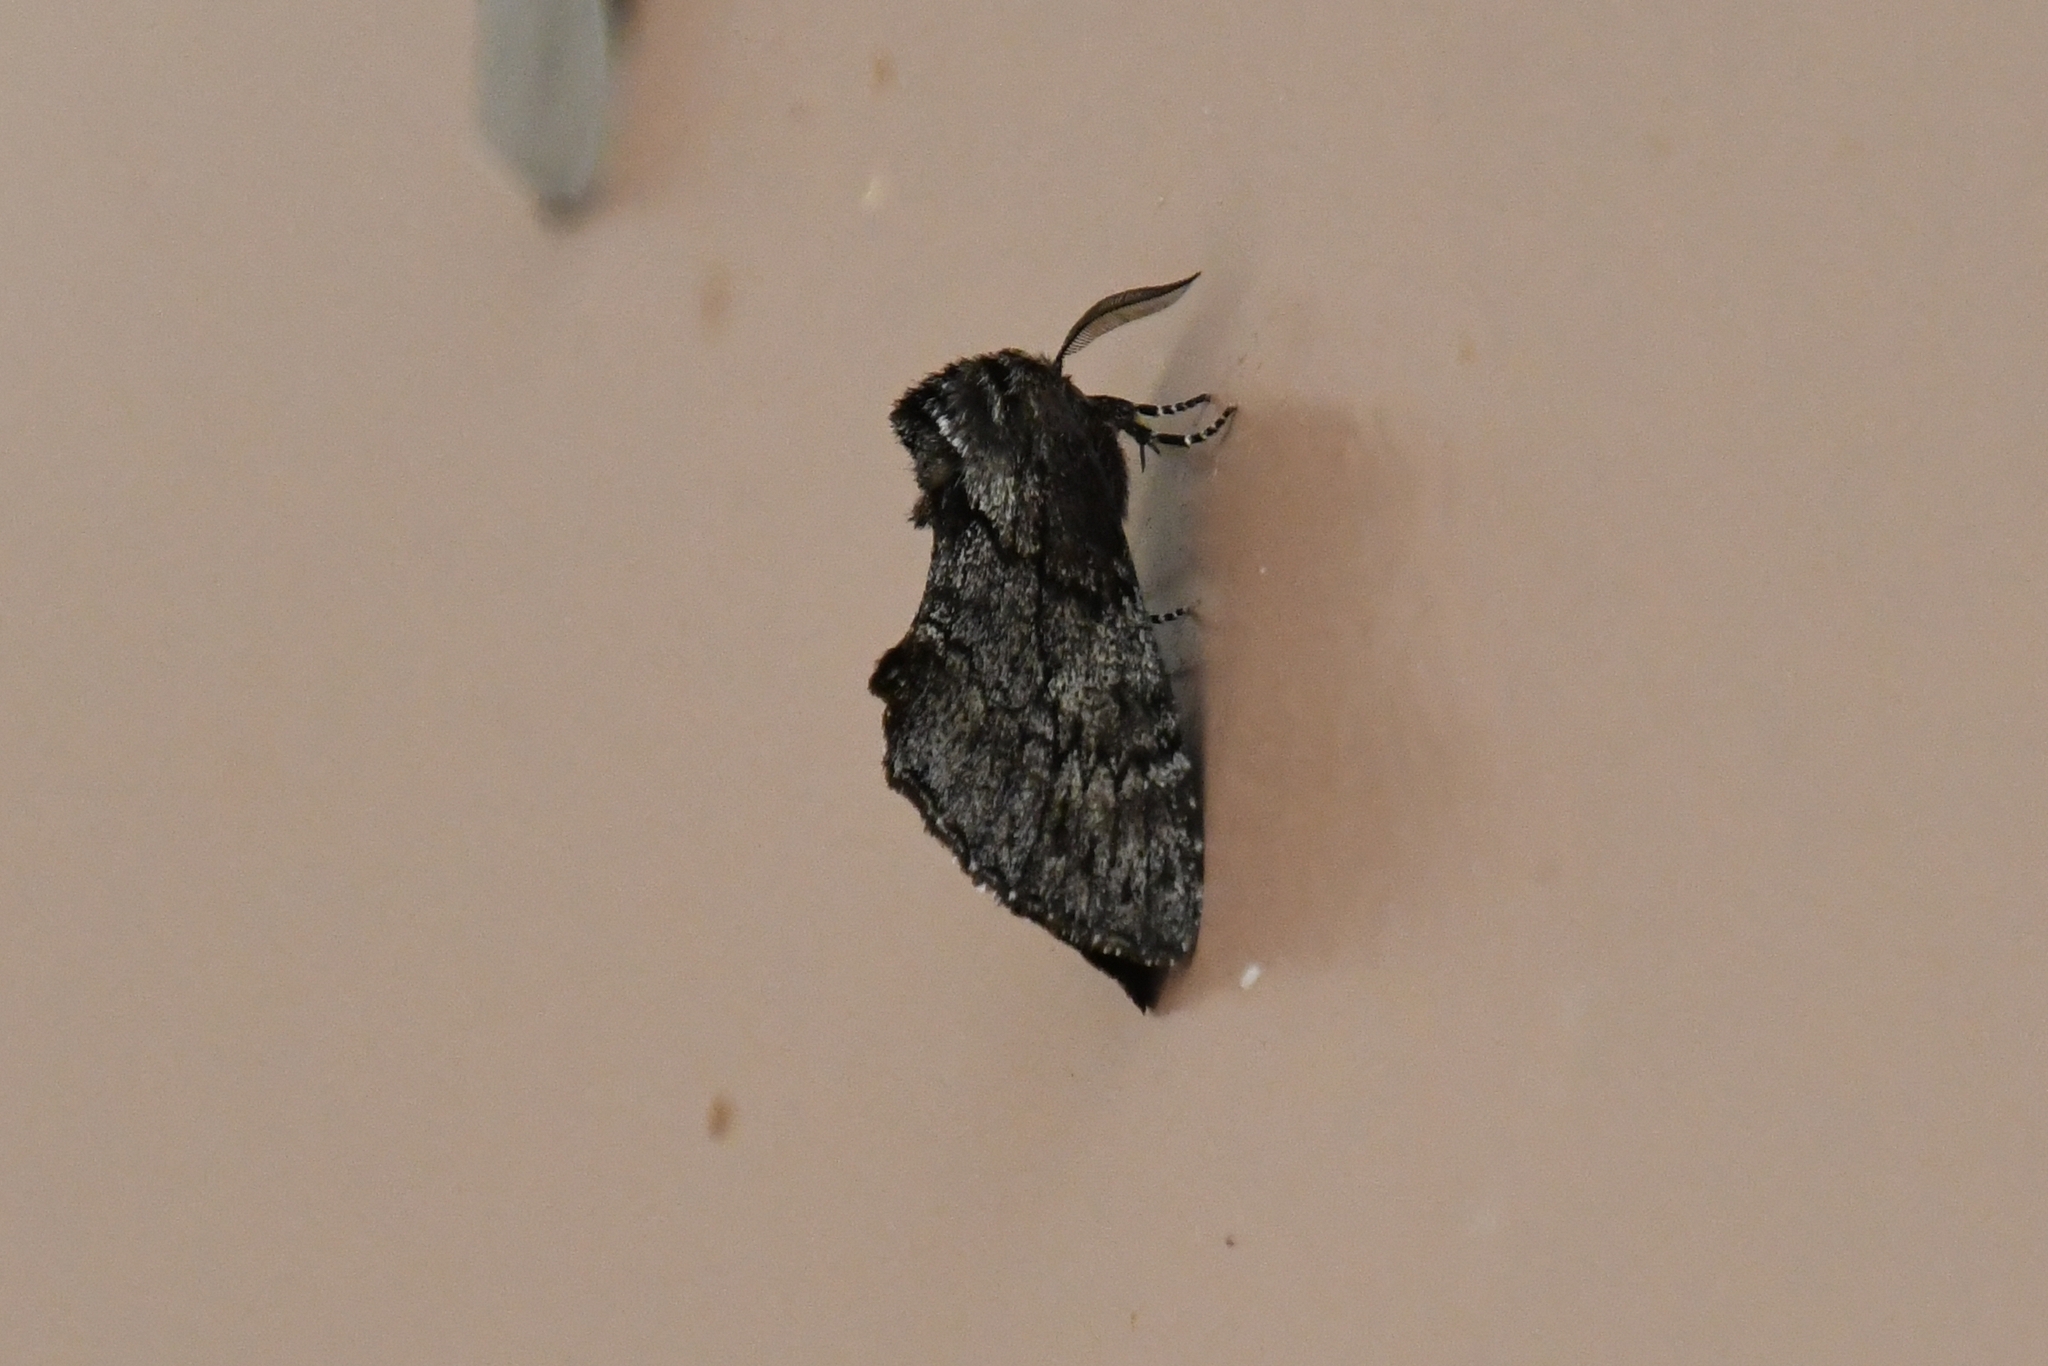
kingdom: Animalia
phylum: Arthropoda
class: Insecta
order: Lepidoptera
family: Notodontidae
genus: Cargida
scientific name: Cargida pyrrha
